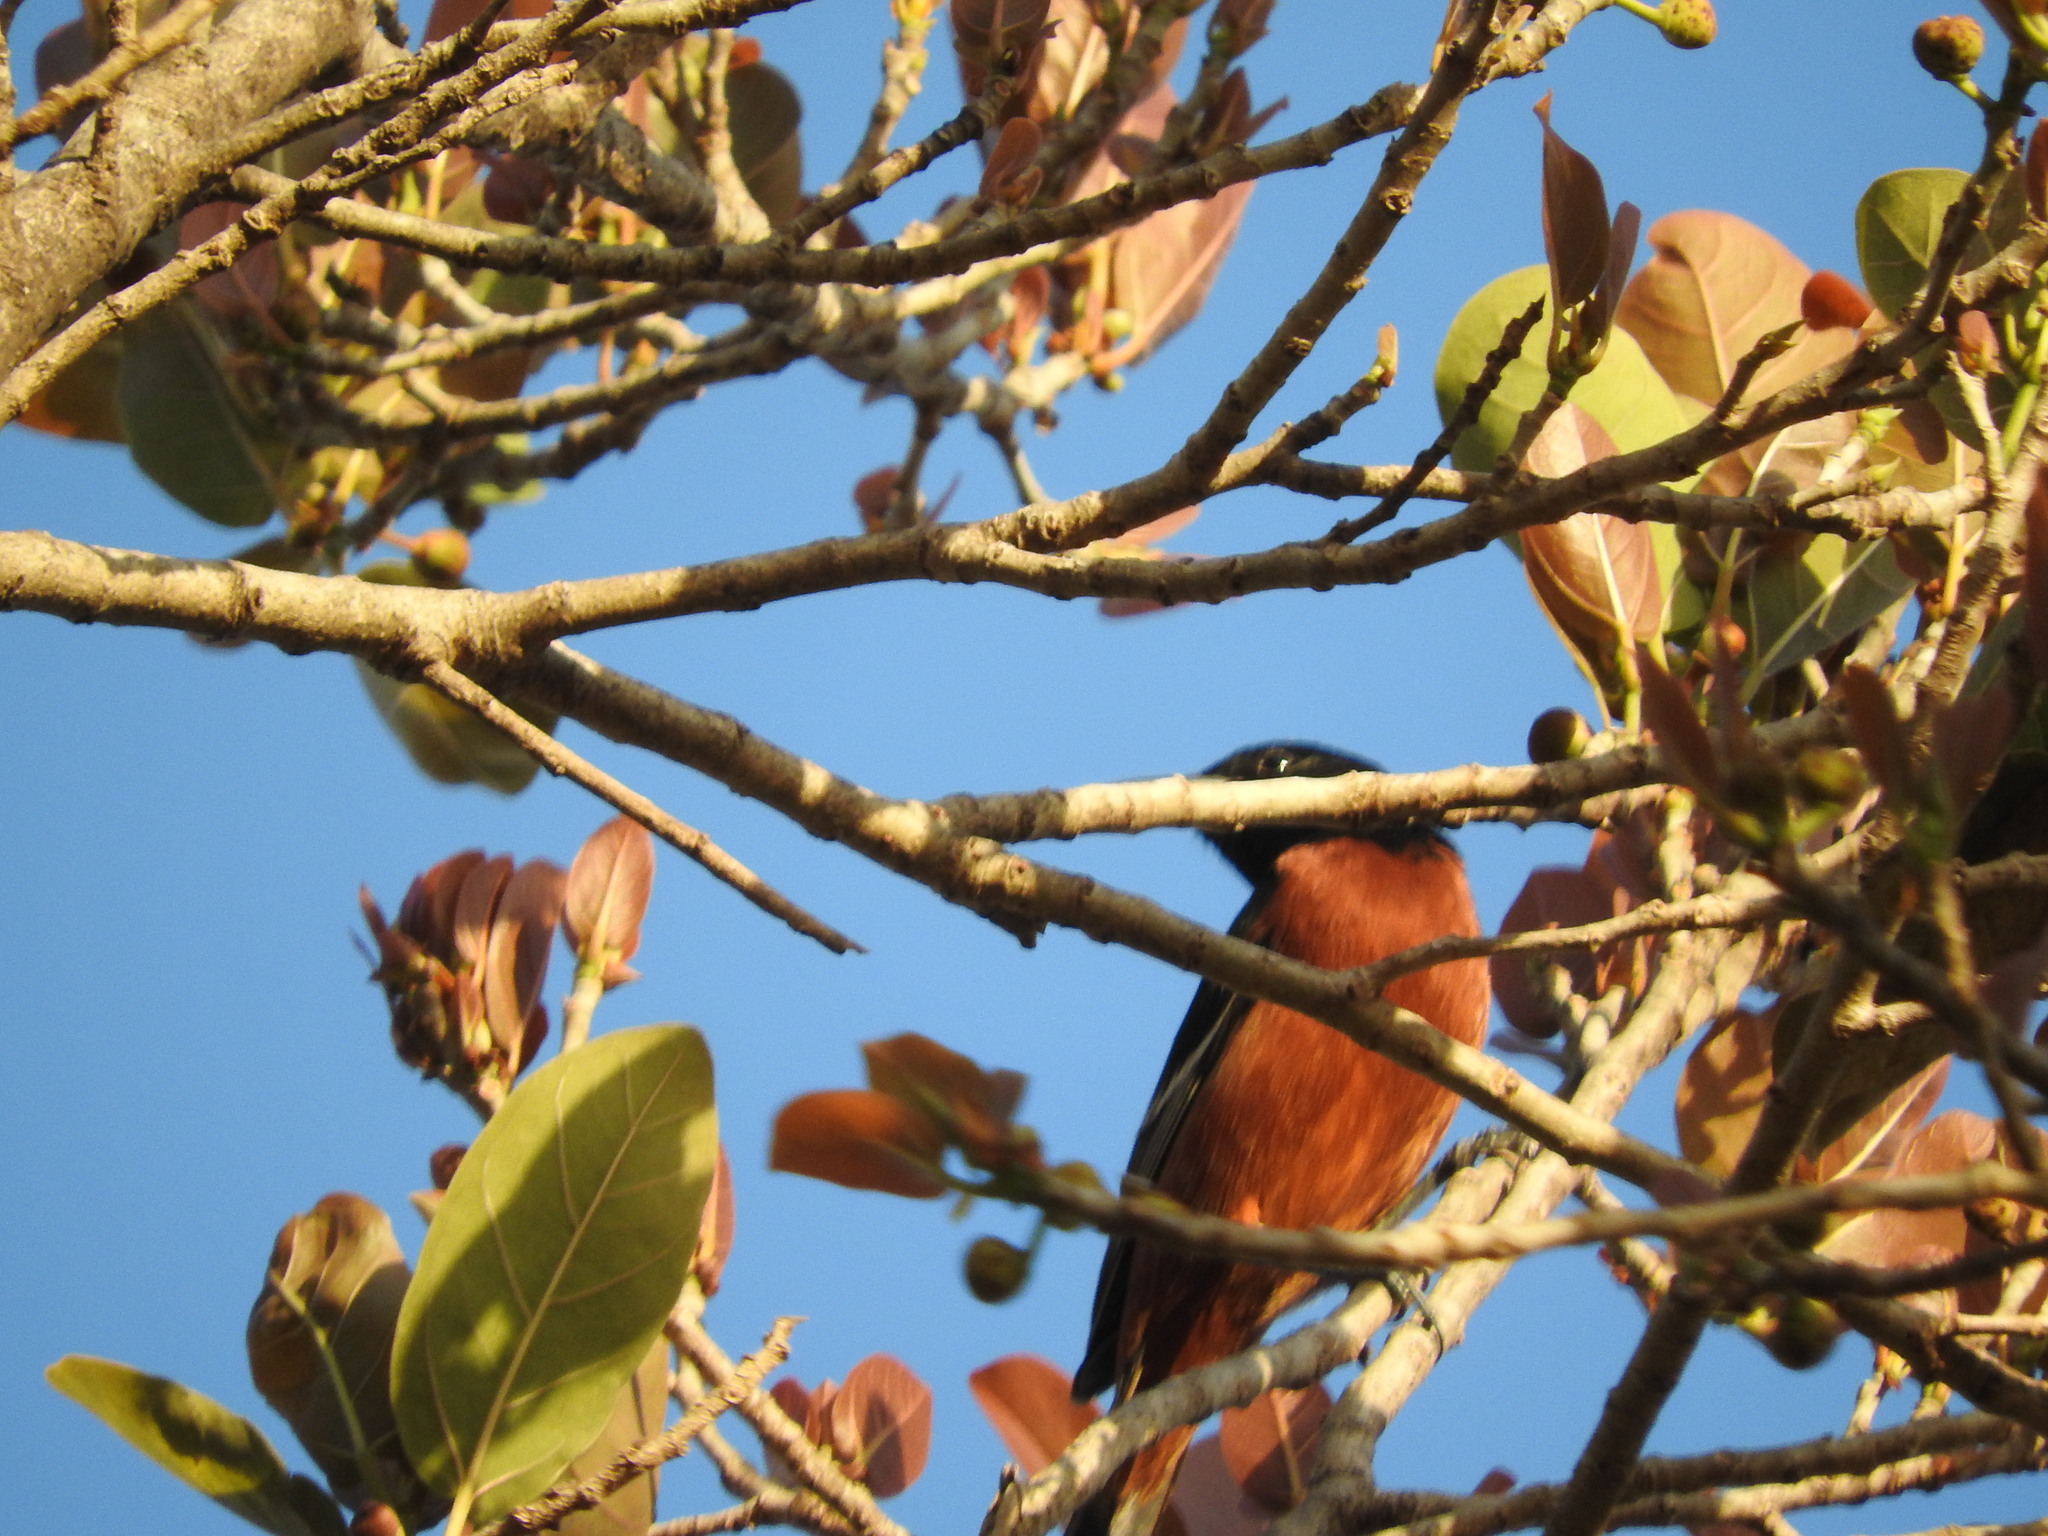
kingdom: Animalia
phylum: Chordata
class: Aves
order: Passeriformes
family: Icteridae
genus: Icterus
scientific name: Icterus spurius
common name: Orchard oriole
